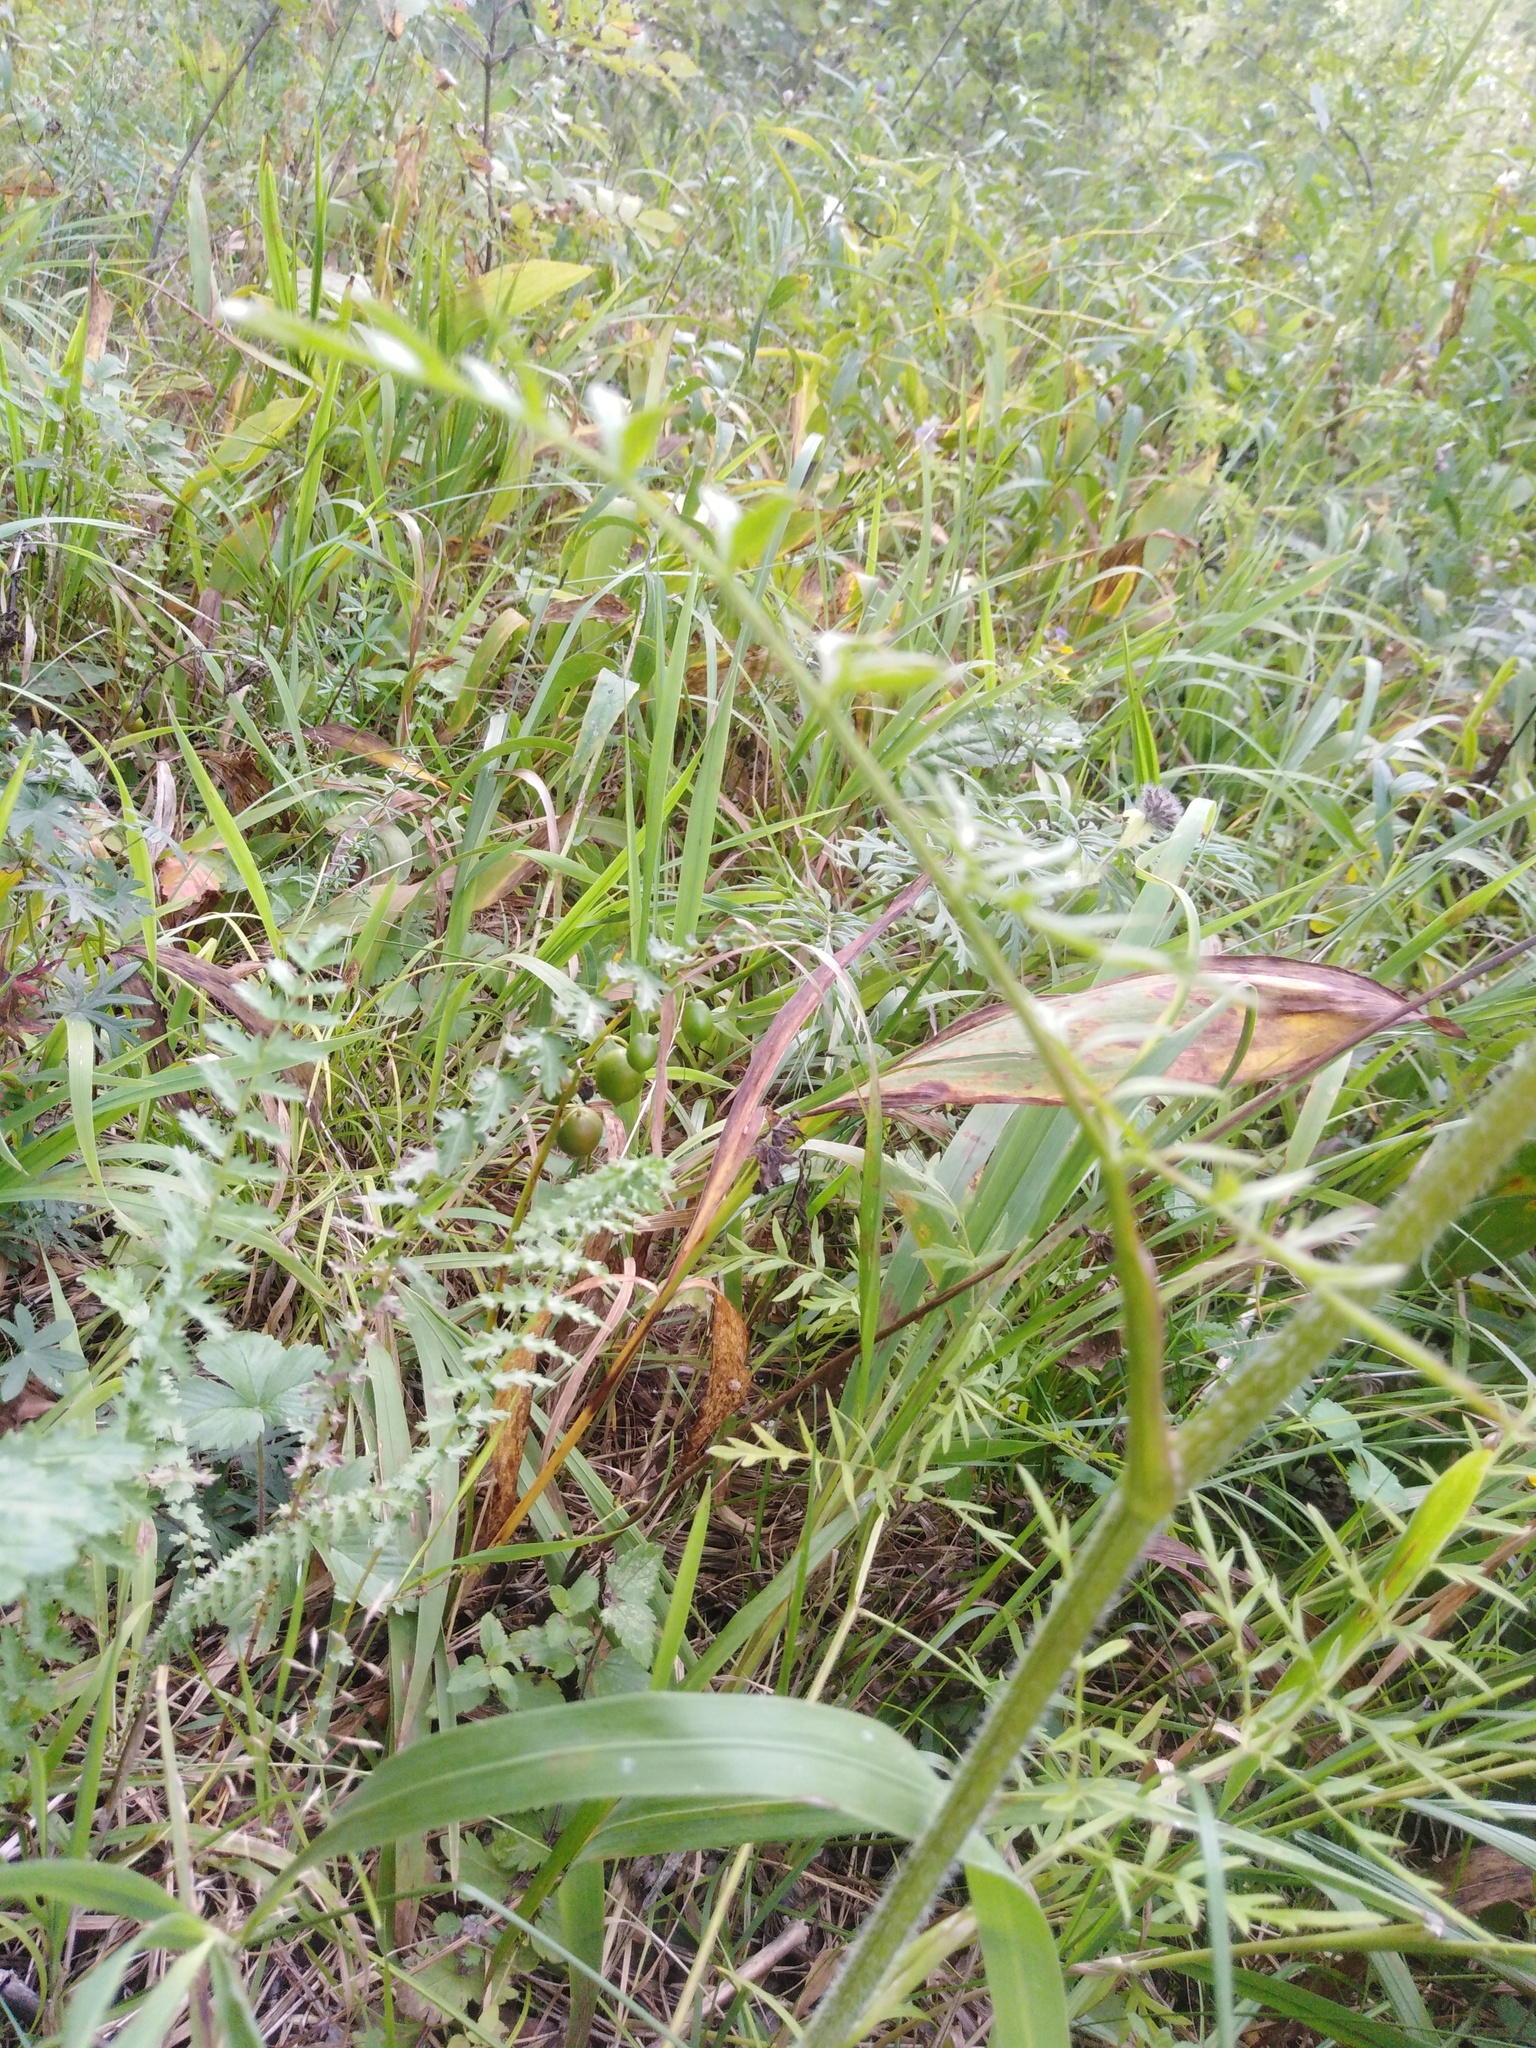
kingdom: Plantae
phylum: Tracheophyta
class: Magnoliopsida
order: Apiales
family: Apiaceae
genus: Silphiodaucus
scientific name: Silphiodaucus prutenicus
